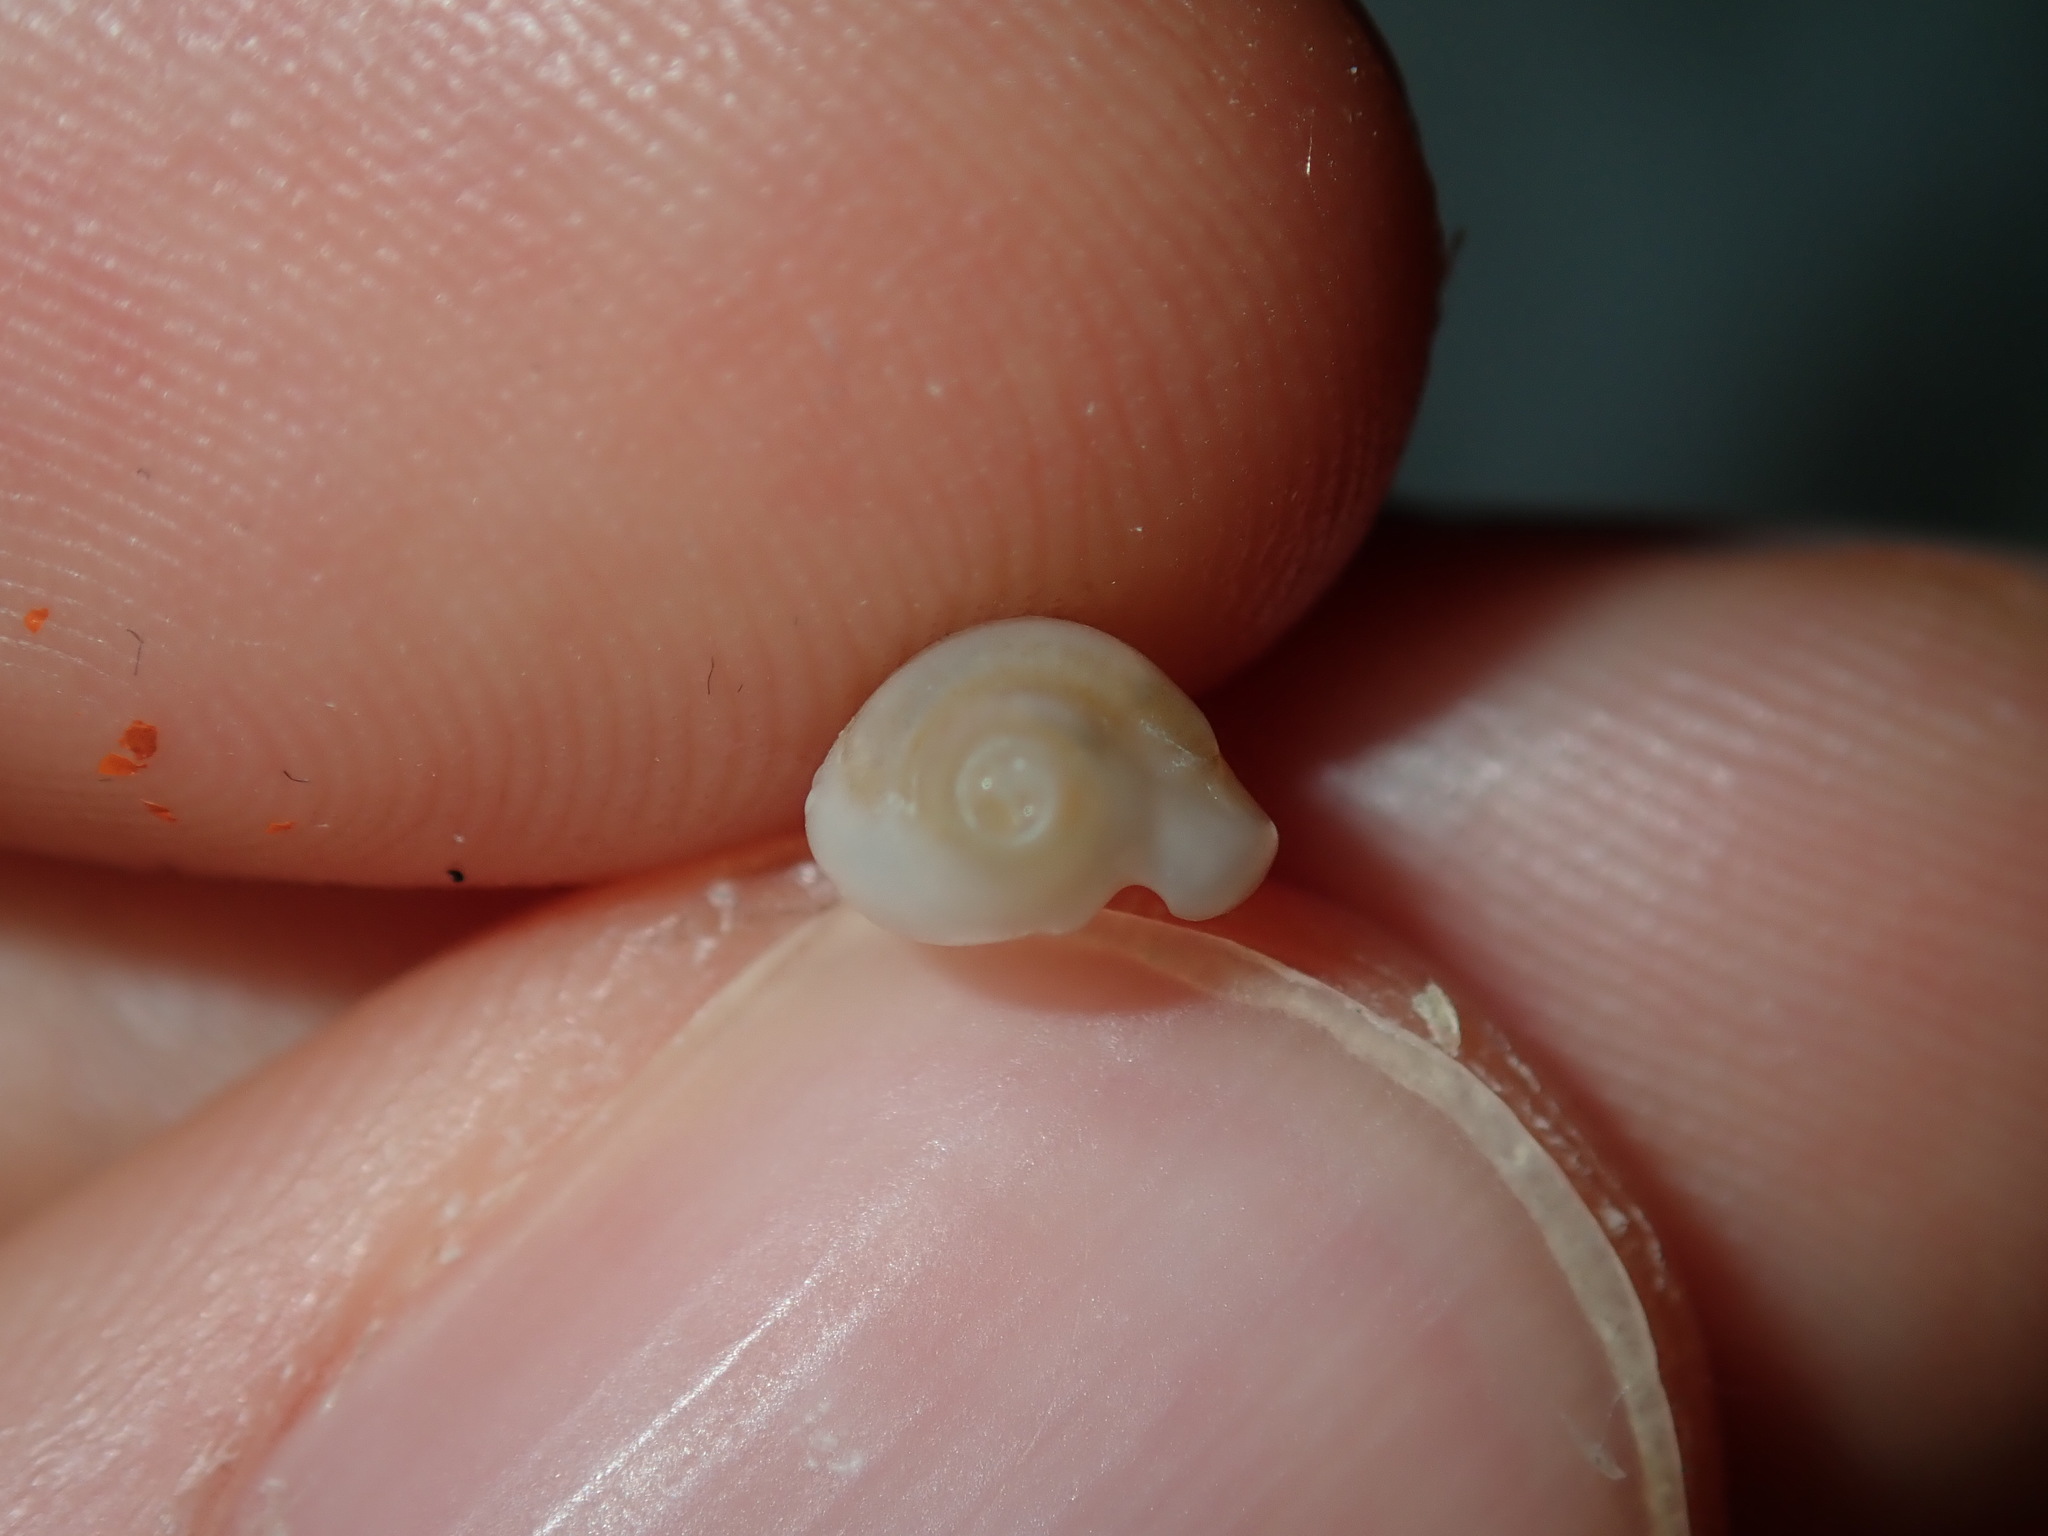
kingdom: Animalia
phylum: Mollusca
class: Gastropoda
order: Neogastropoda
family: Marginellidae
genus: Austroginella
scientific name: Austroginella johnstoni
